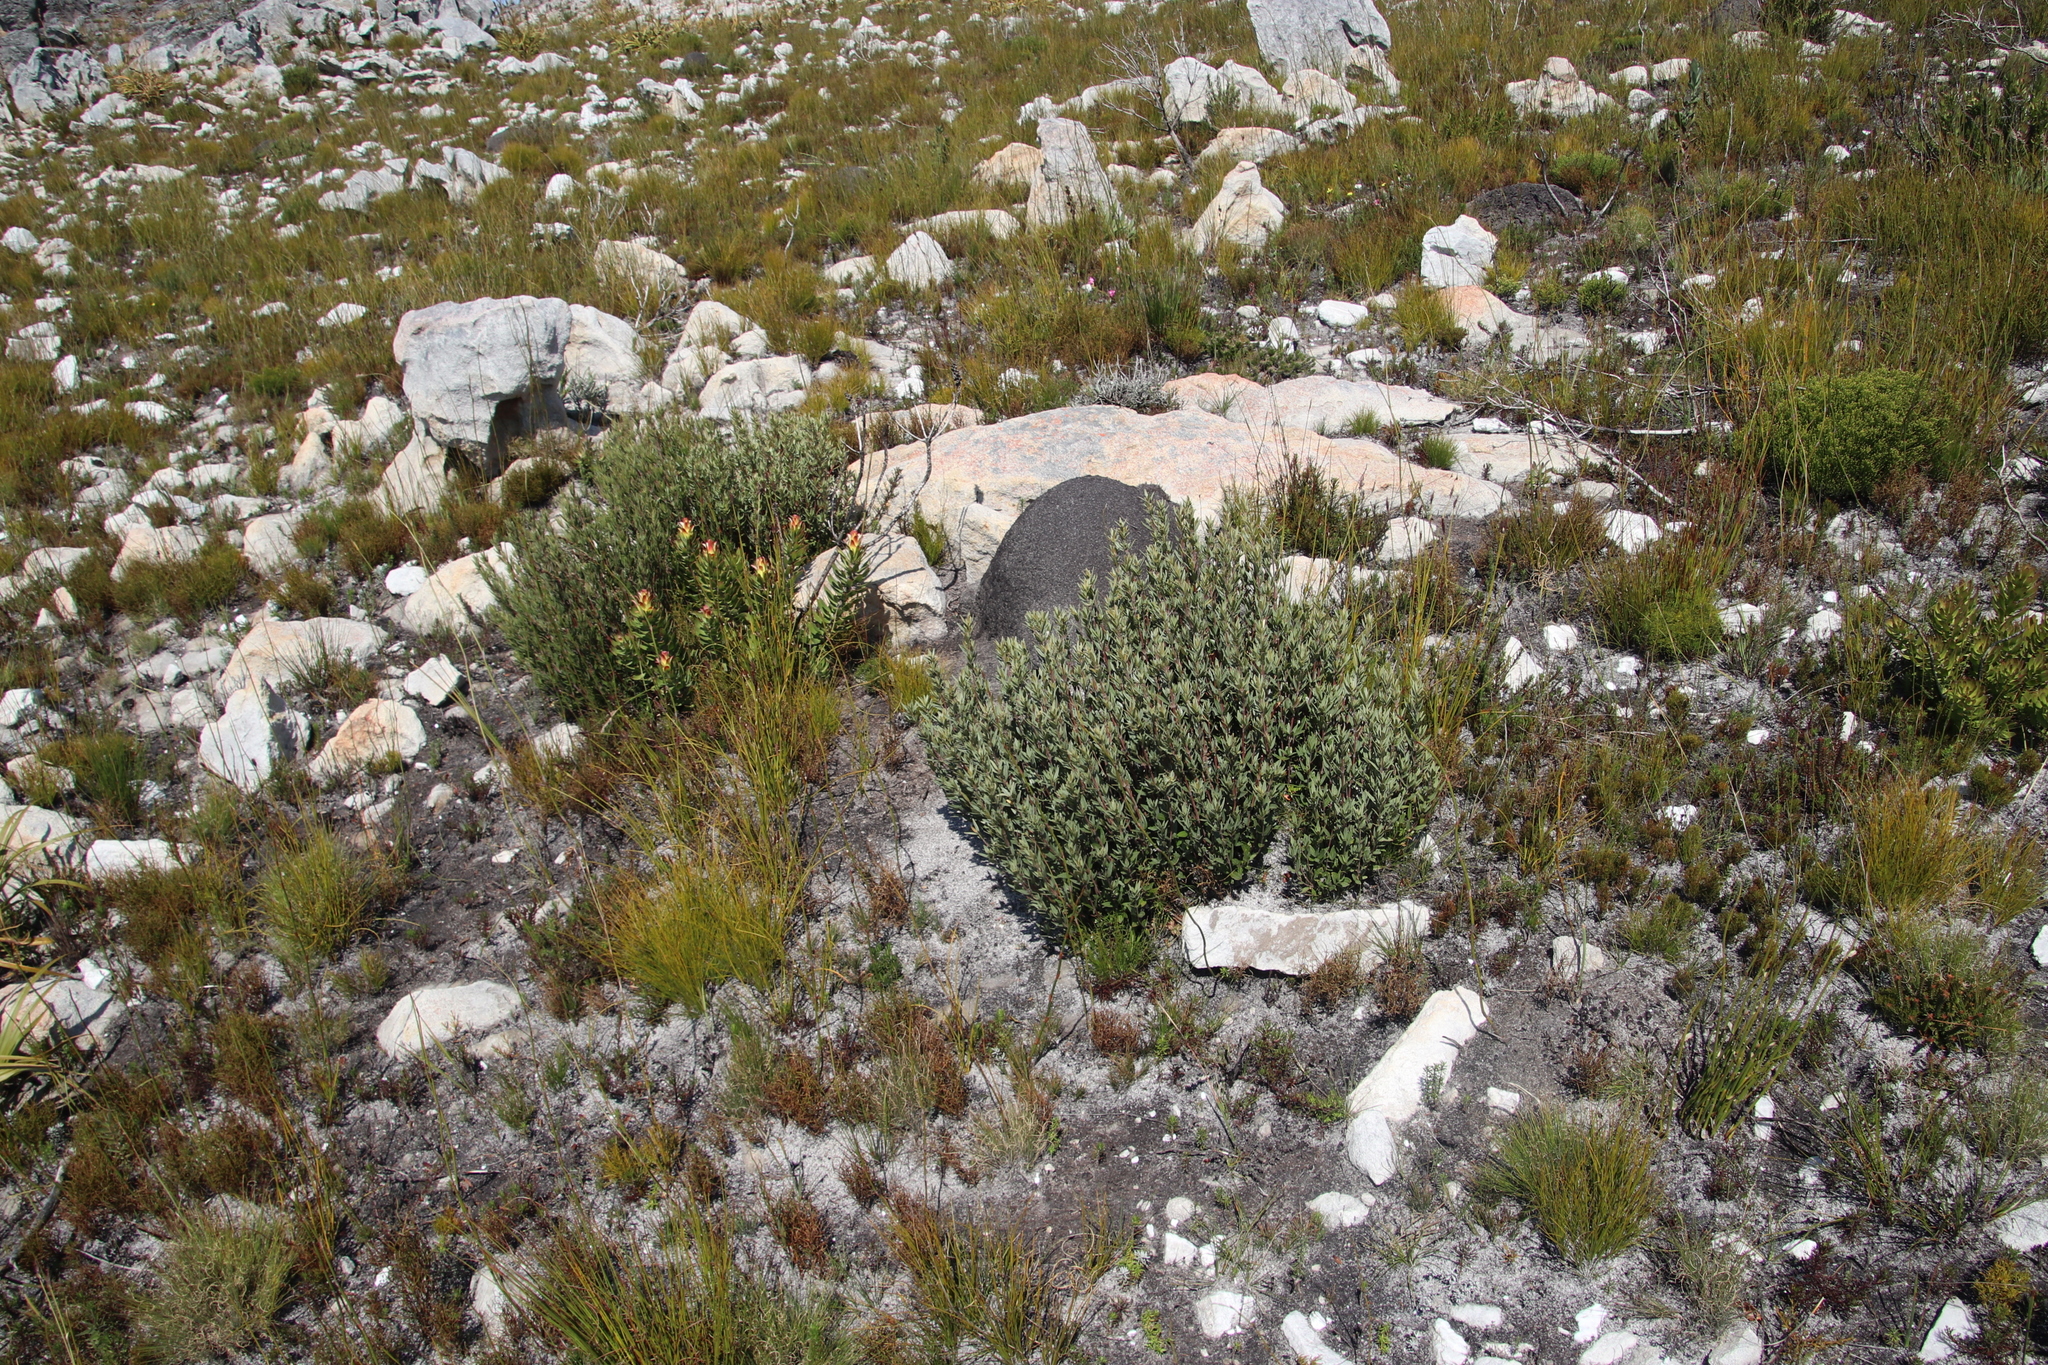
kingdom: Plantae
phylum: Tracheophyta
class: Magnoliopsida
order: Cornales
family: Grubbiaceae
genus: Grubbia
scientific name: Grubbia tomentosa
